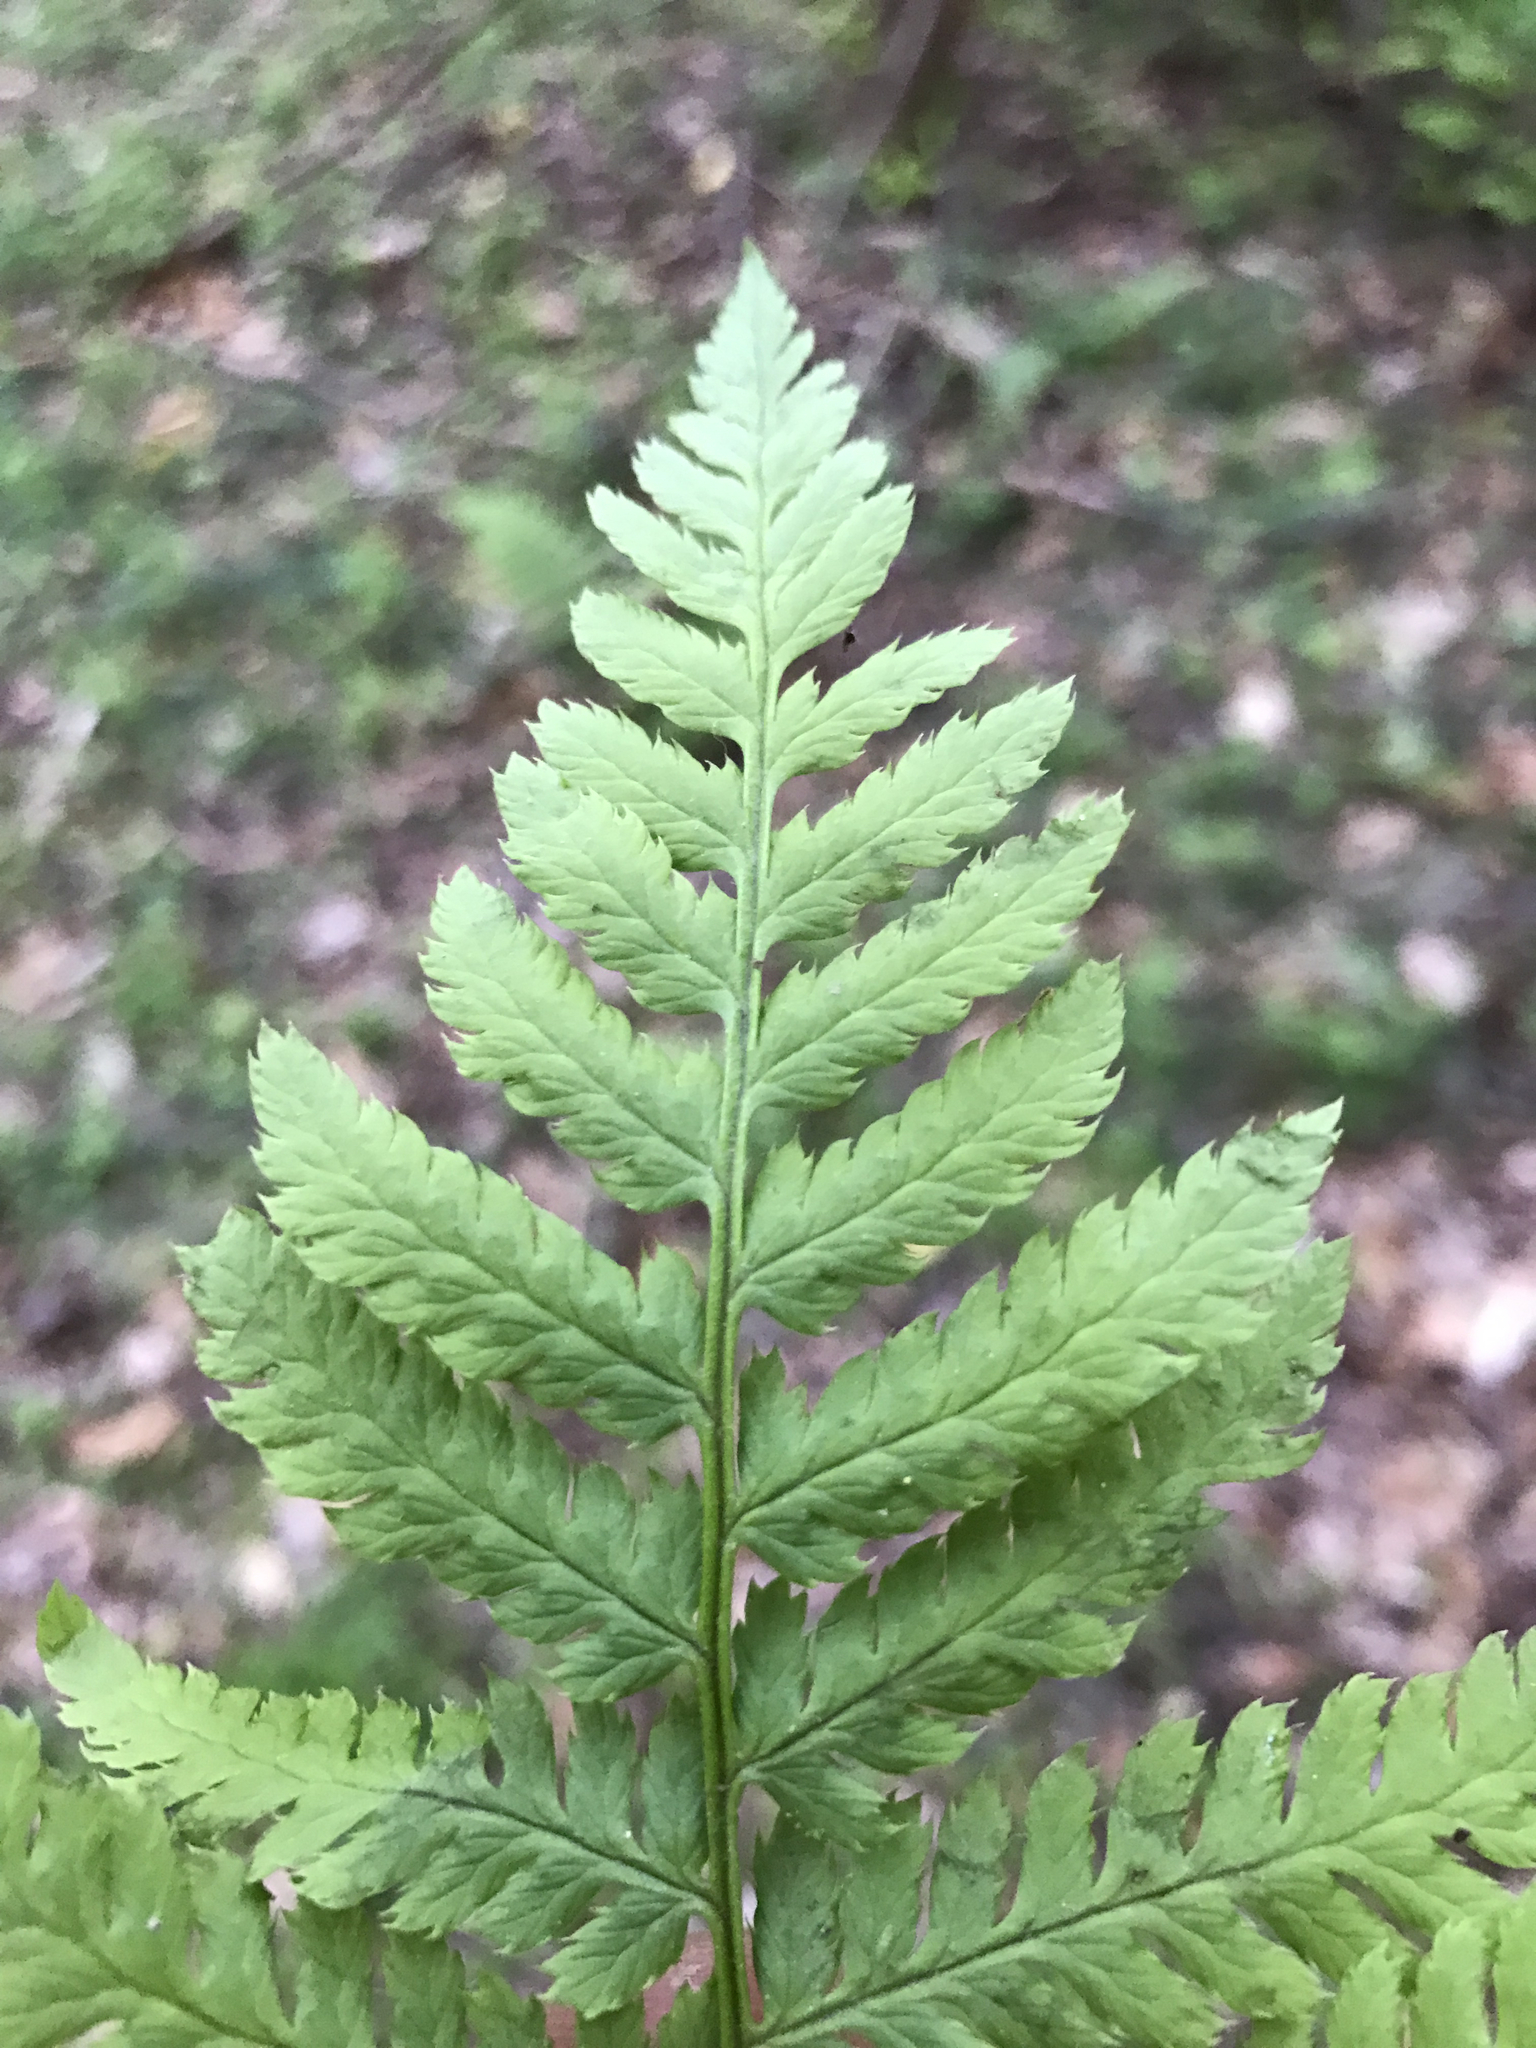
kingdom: Plantae
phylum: Tracheophyta
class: Polypodiopsida
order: Polypodiales
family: Dryopteridaceae
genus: Dryopteris
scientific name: Dryopteris carthusiana
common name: Narrow buckler-fern
